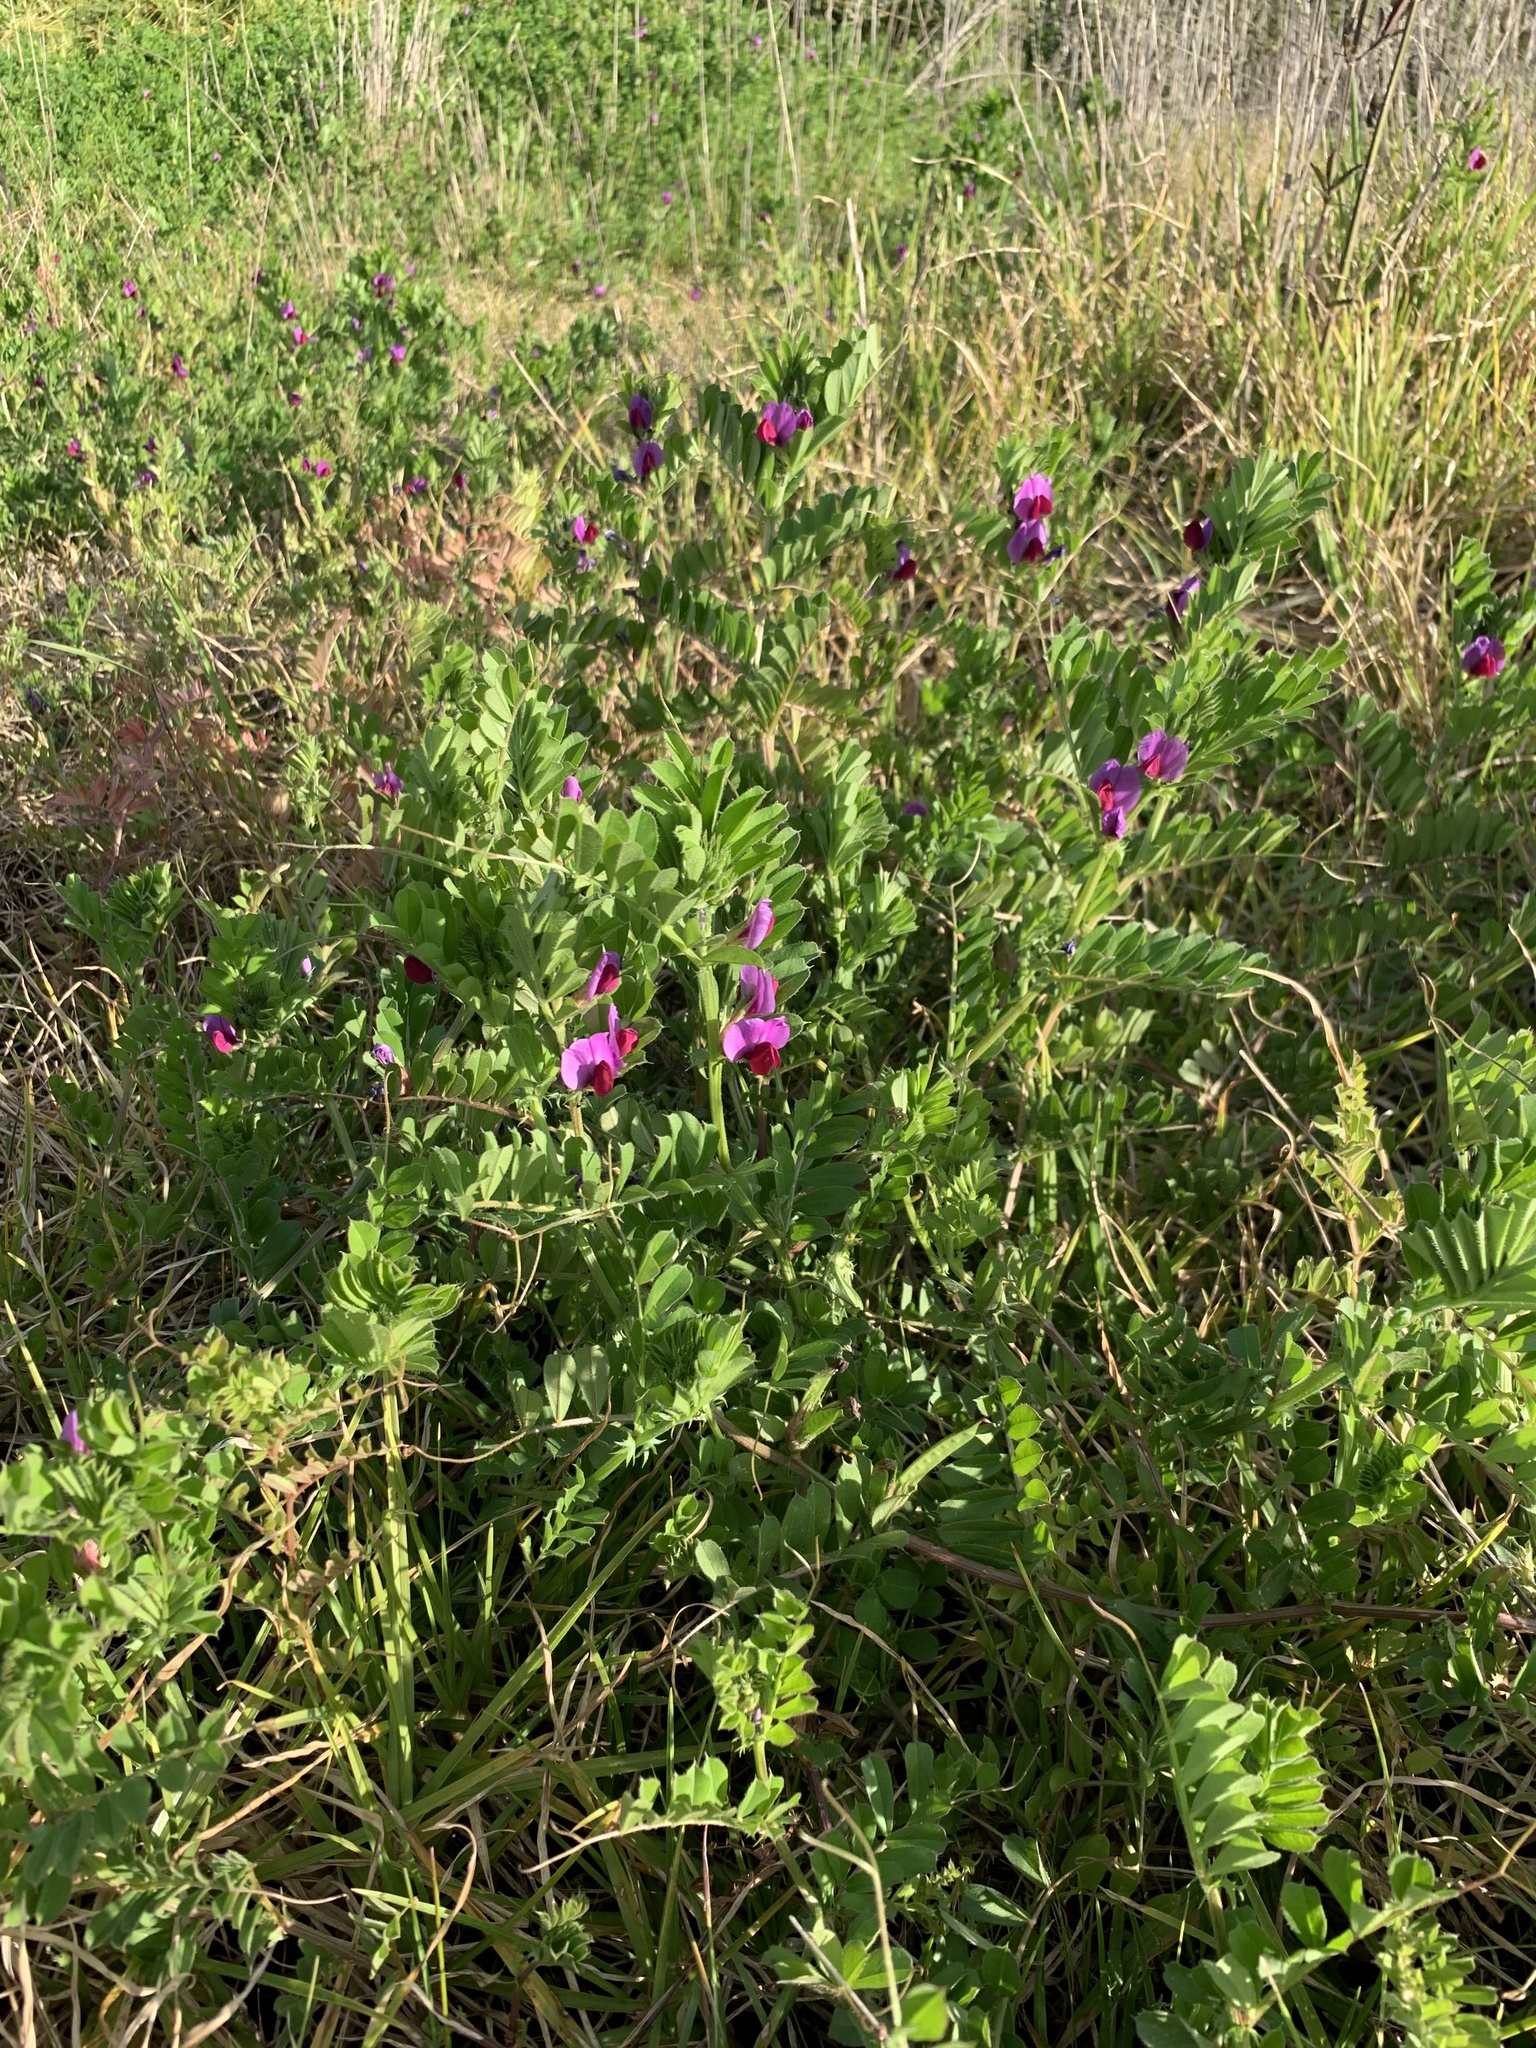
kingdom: Plantae
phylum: Tracheophyta
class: Magnoliopsida
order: Fabales
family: Fabaceae
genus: Vicia
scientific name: Vicia sativa
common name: Garden vetch
